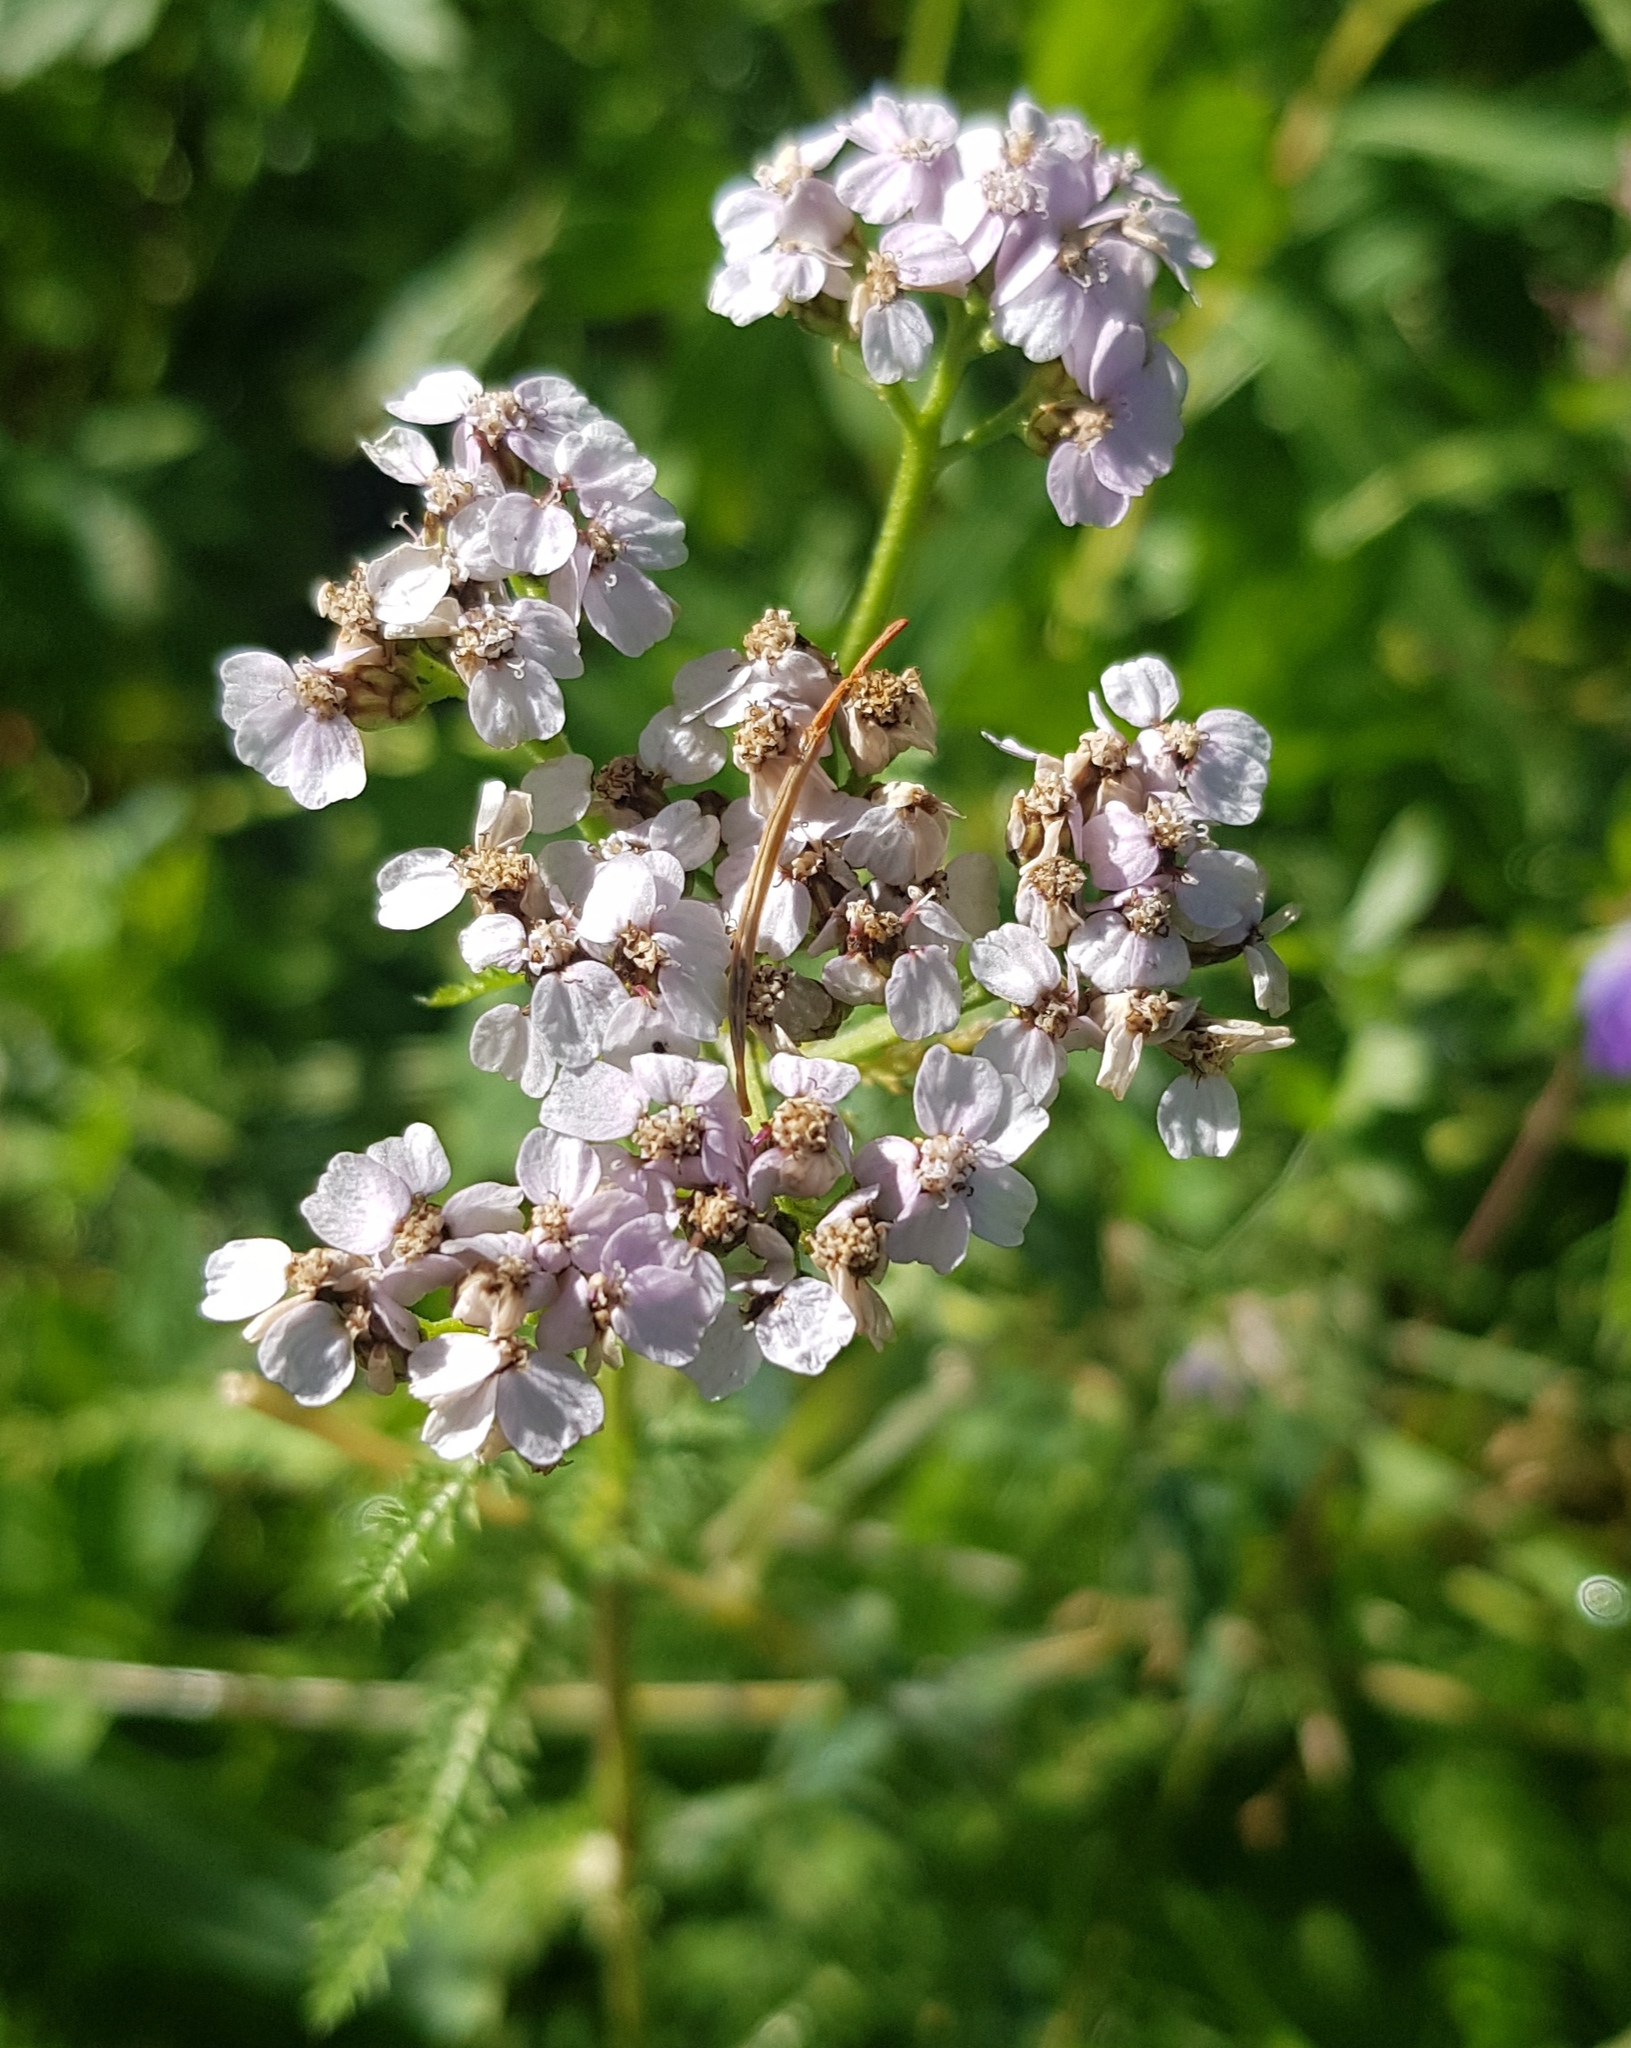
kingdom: Plantae
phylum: Tracheophyta
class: Magnoliopsida
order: Asterales
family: Asteraceae
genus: Achillea
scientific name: Achillea millefolium
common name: Yarrow
